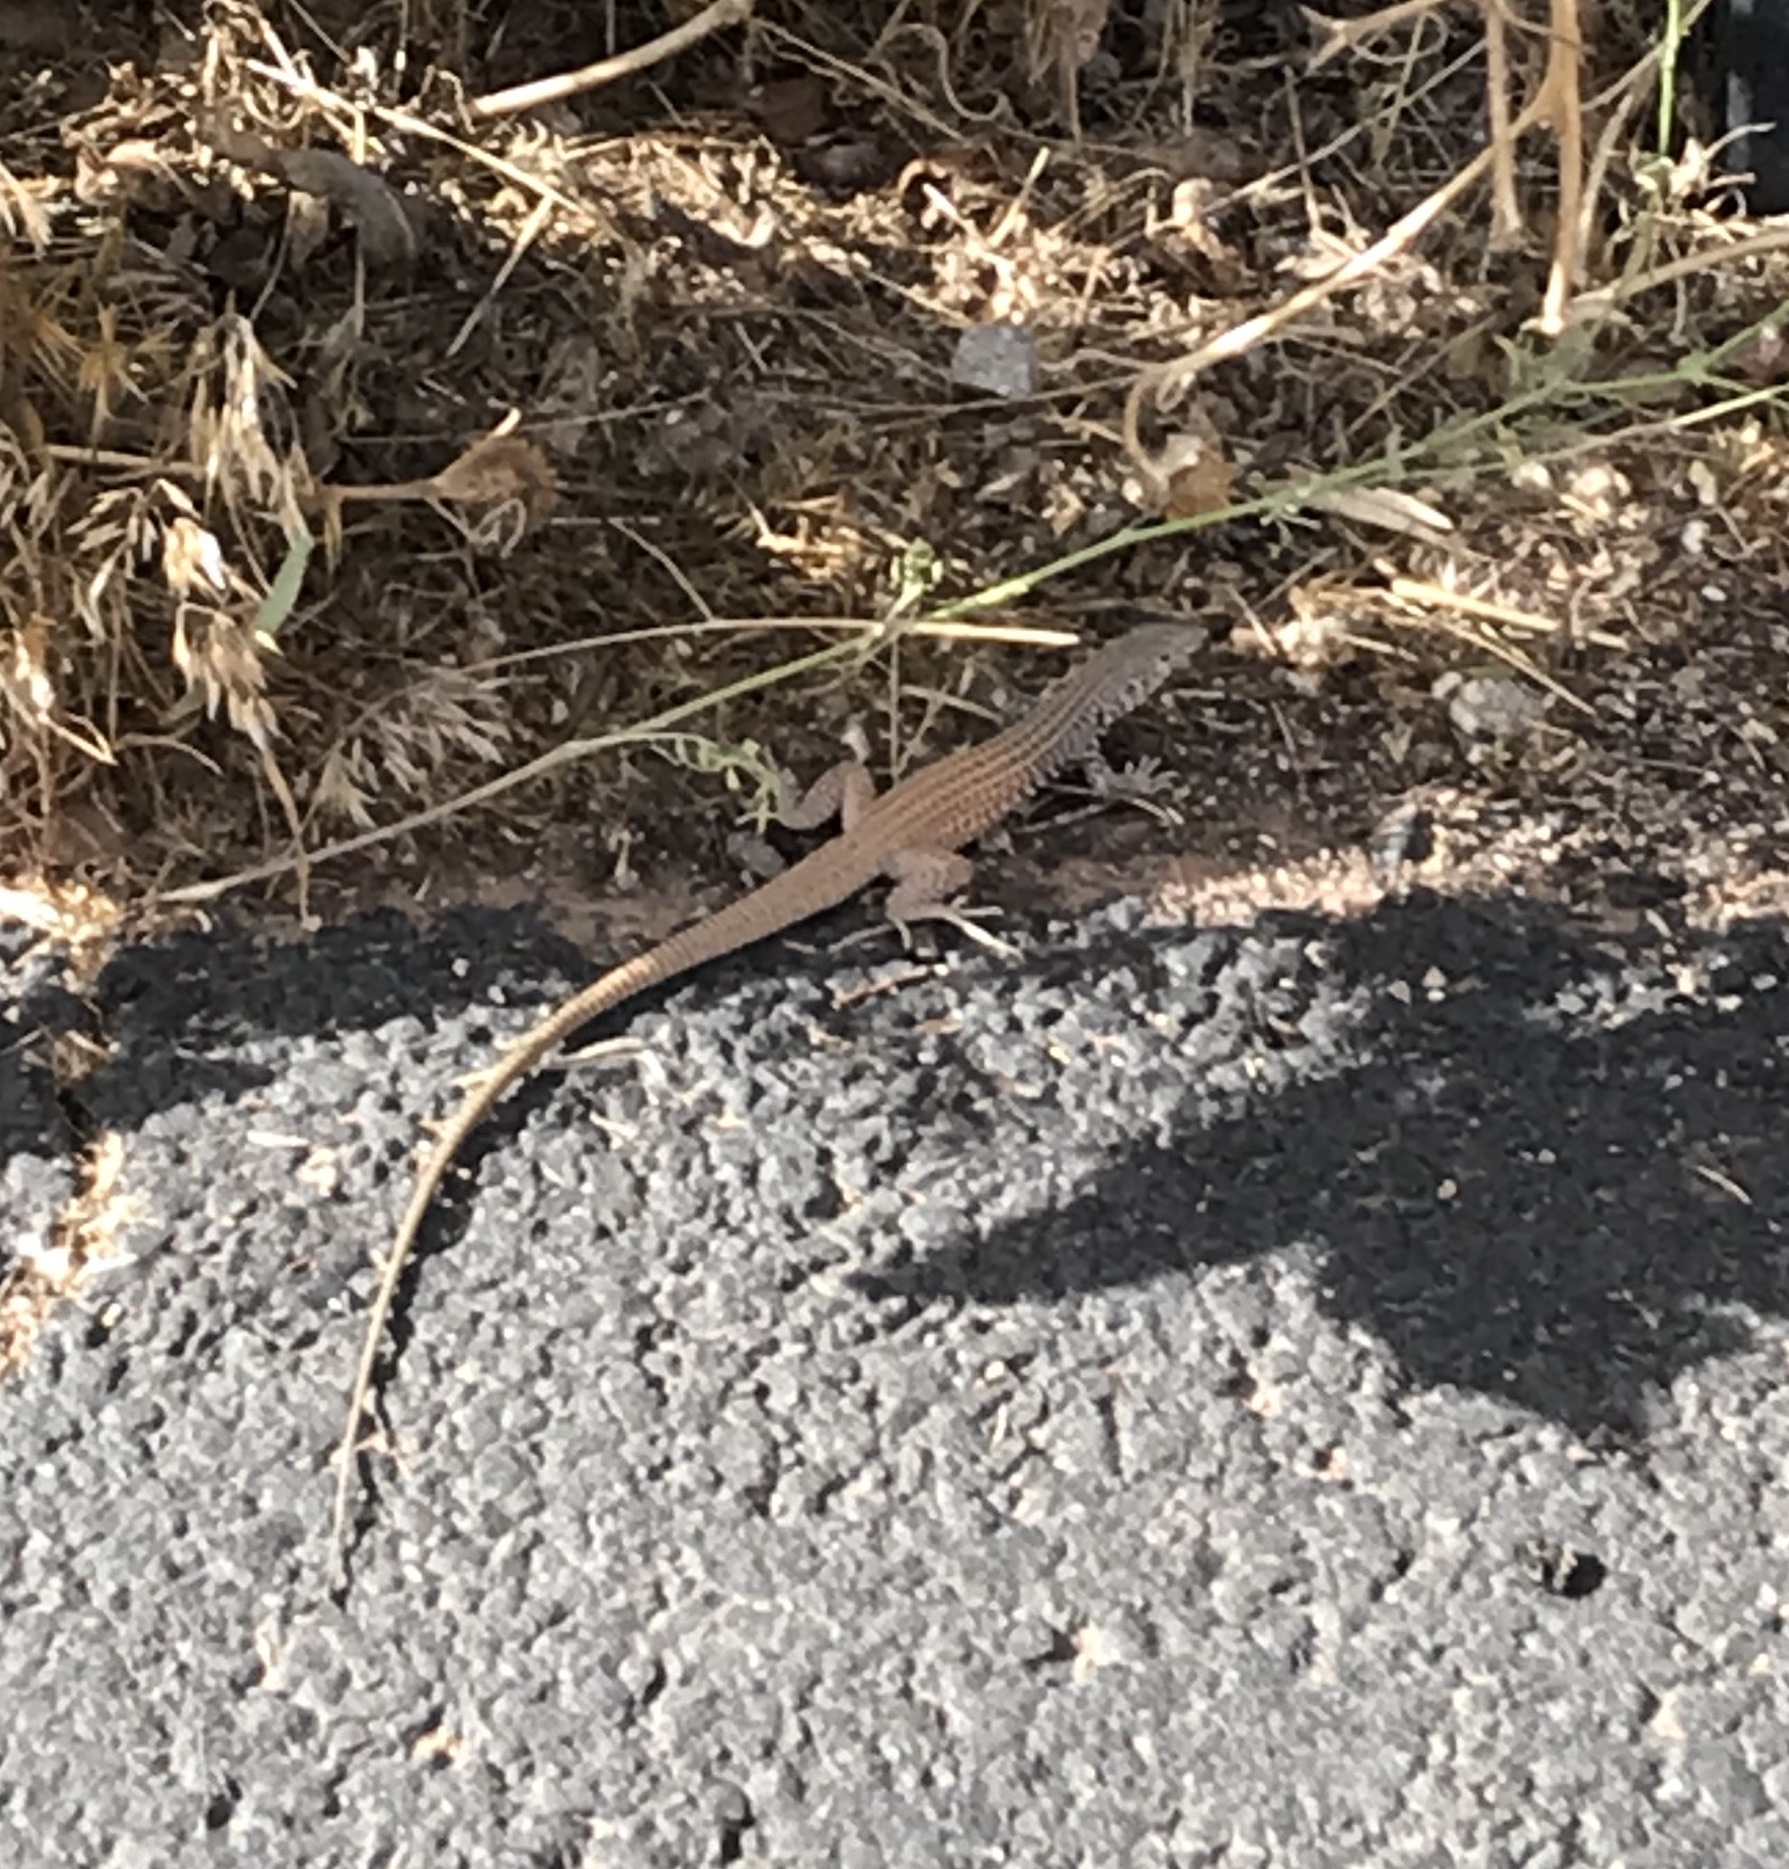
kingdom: Animalia
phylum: Chordata
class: Squamata
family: Teiidae
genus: Aspidoscelis
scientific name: Aspidoscelis tigris
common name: Tiger whiptail
